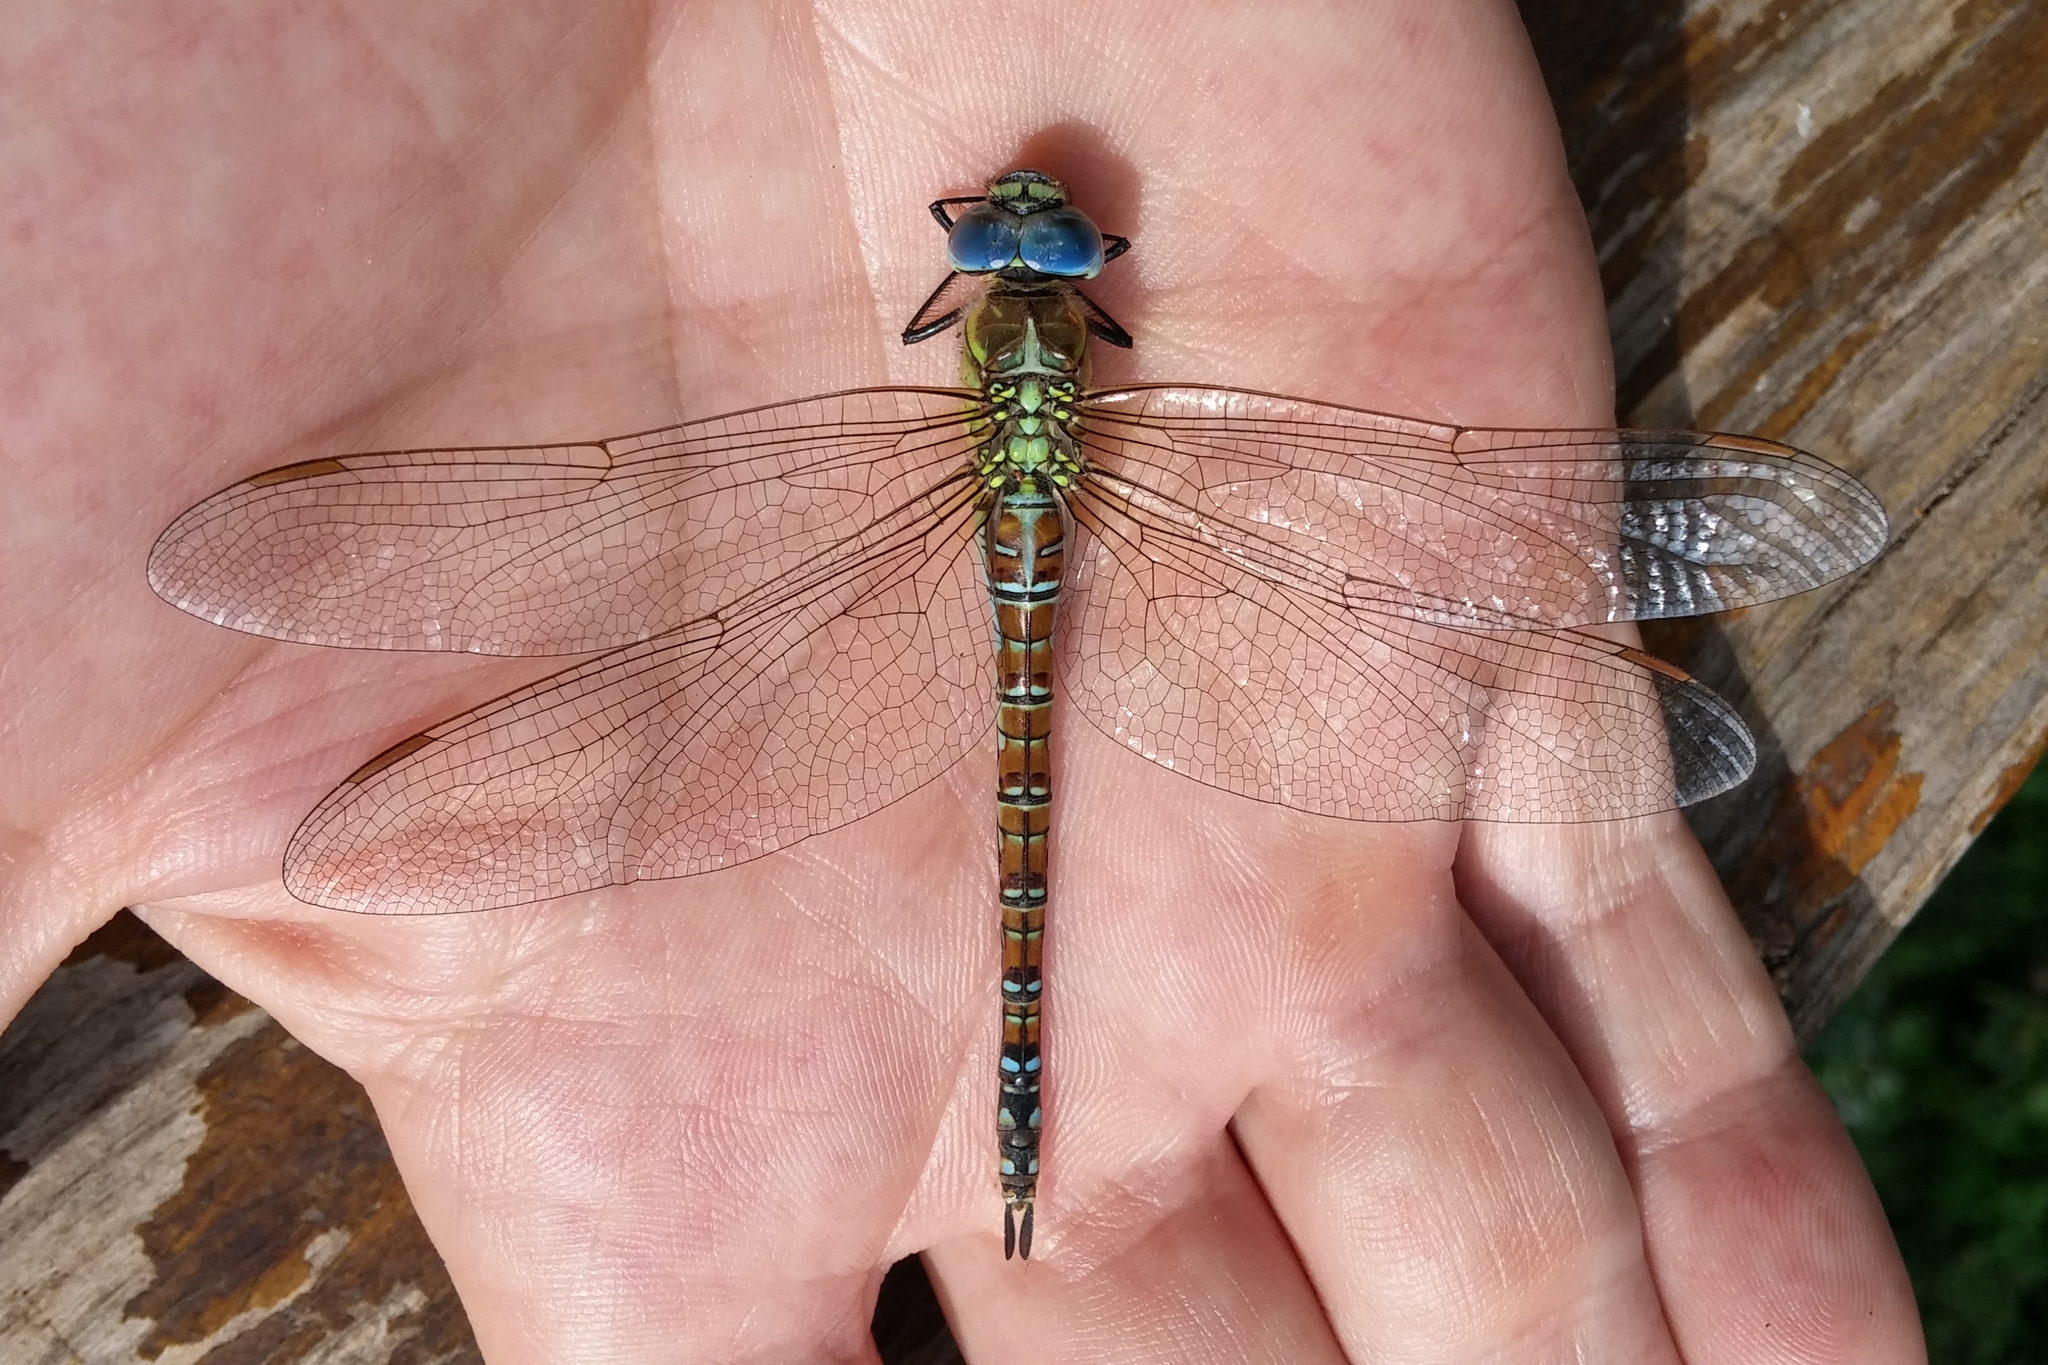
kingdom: Animalia
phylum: Arthropoda
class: Insecta
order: Odonata
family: Aeshnidae
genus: Aeshna
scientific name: Aeshna affinis
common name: Southern migrant hawker
